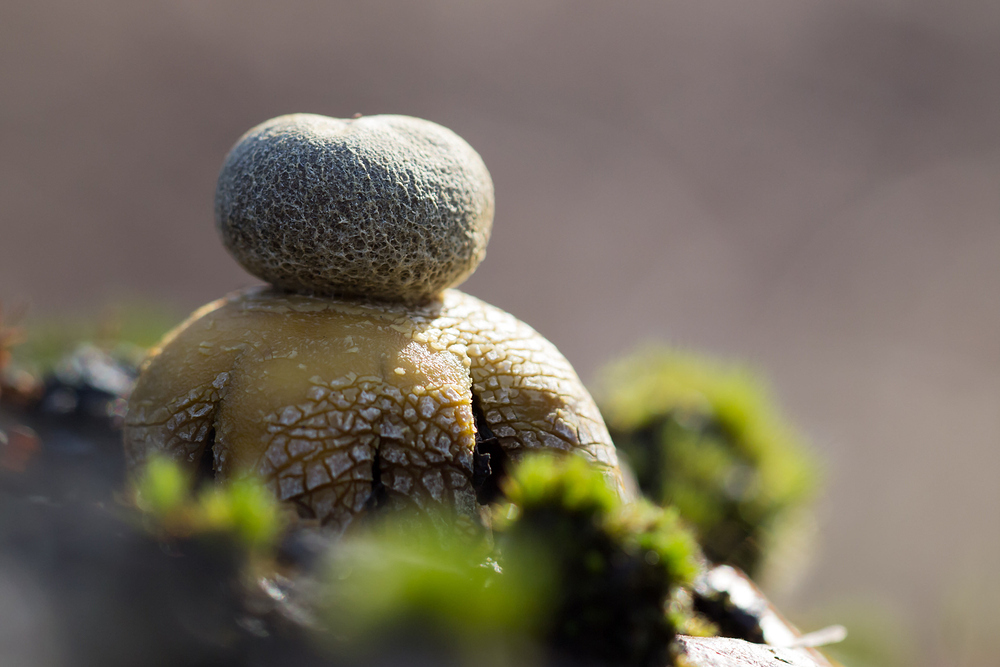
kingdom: Fungi
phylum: Basidiomycota
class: Agaricomycetes
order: Boletales
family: Diplocystidiaceae
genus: Astraeus
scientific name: Astraeus hygrometricus
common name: Barometer earthstar
